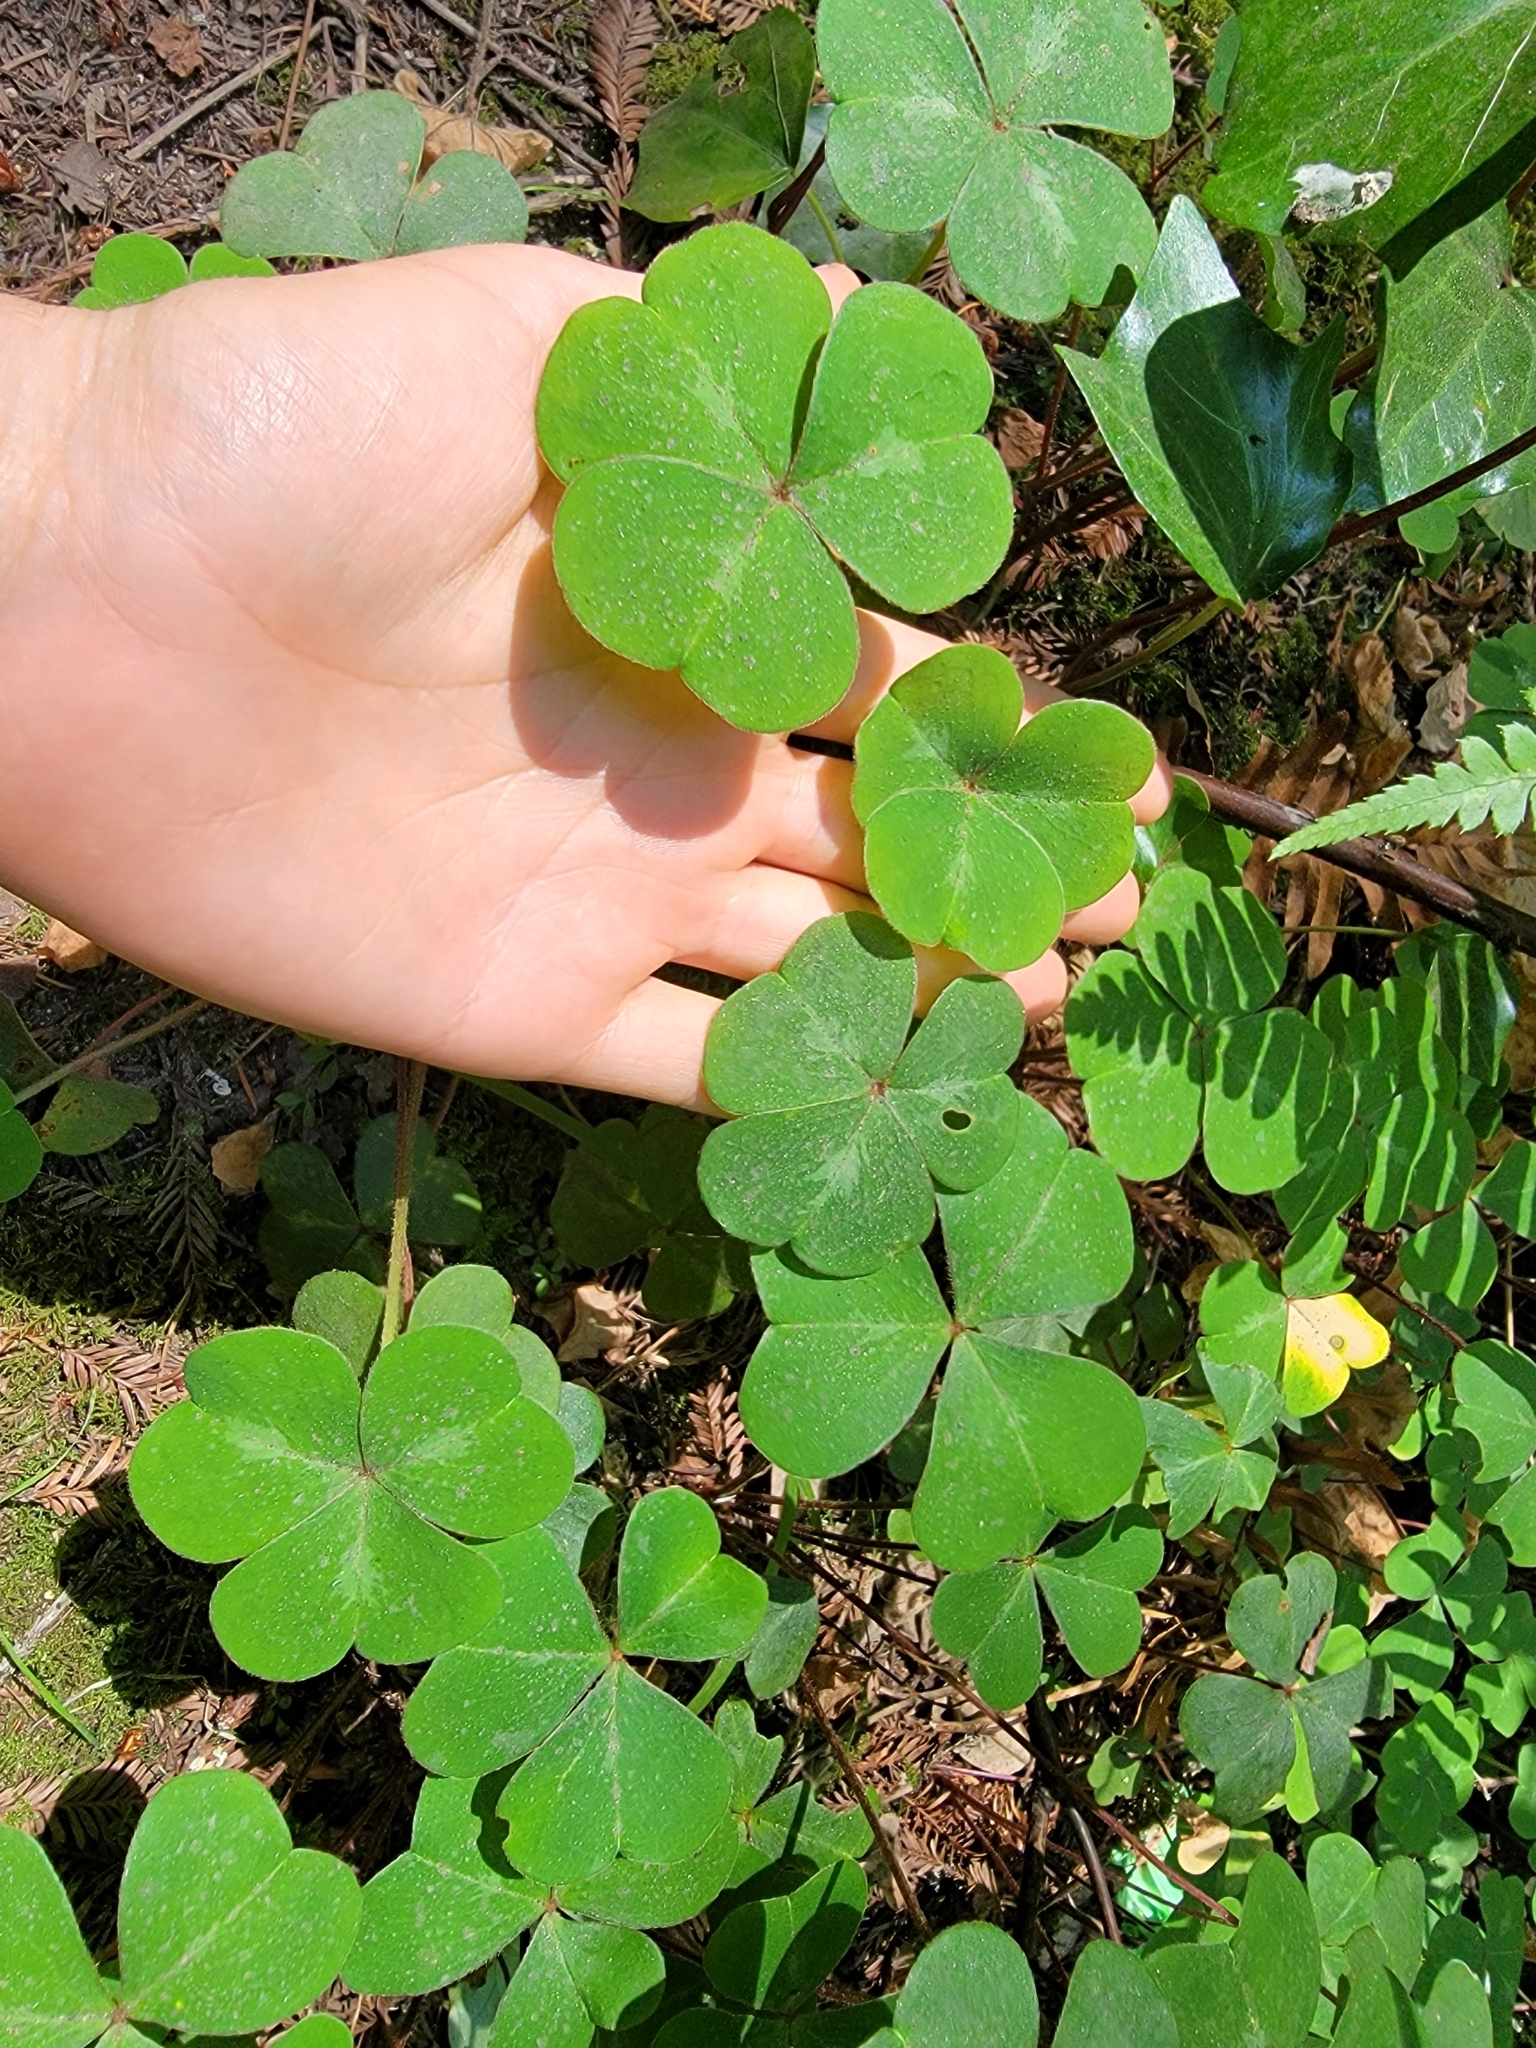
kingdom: Plantae
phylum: Tracheophyta
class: Magnoliopsida
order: Oxalidales
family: Oxalidaceae
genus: Oxalis
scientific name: Oxalis oregana
